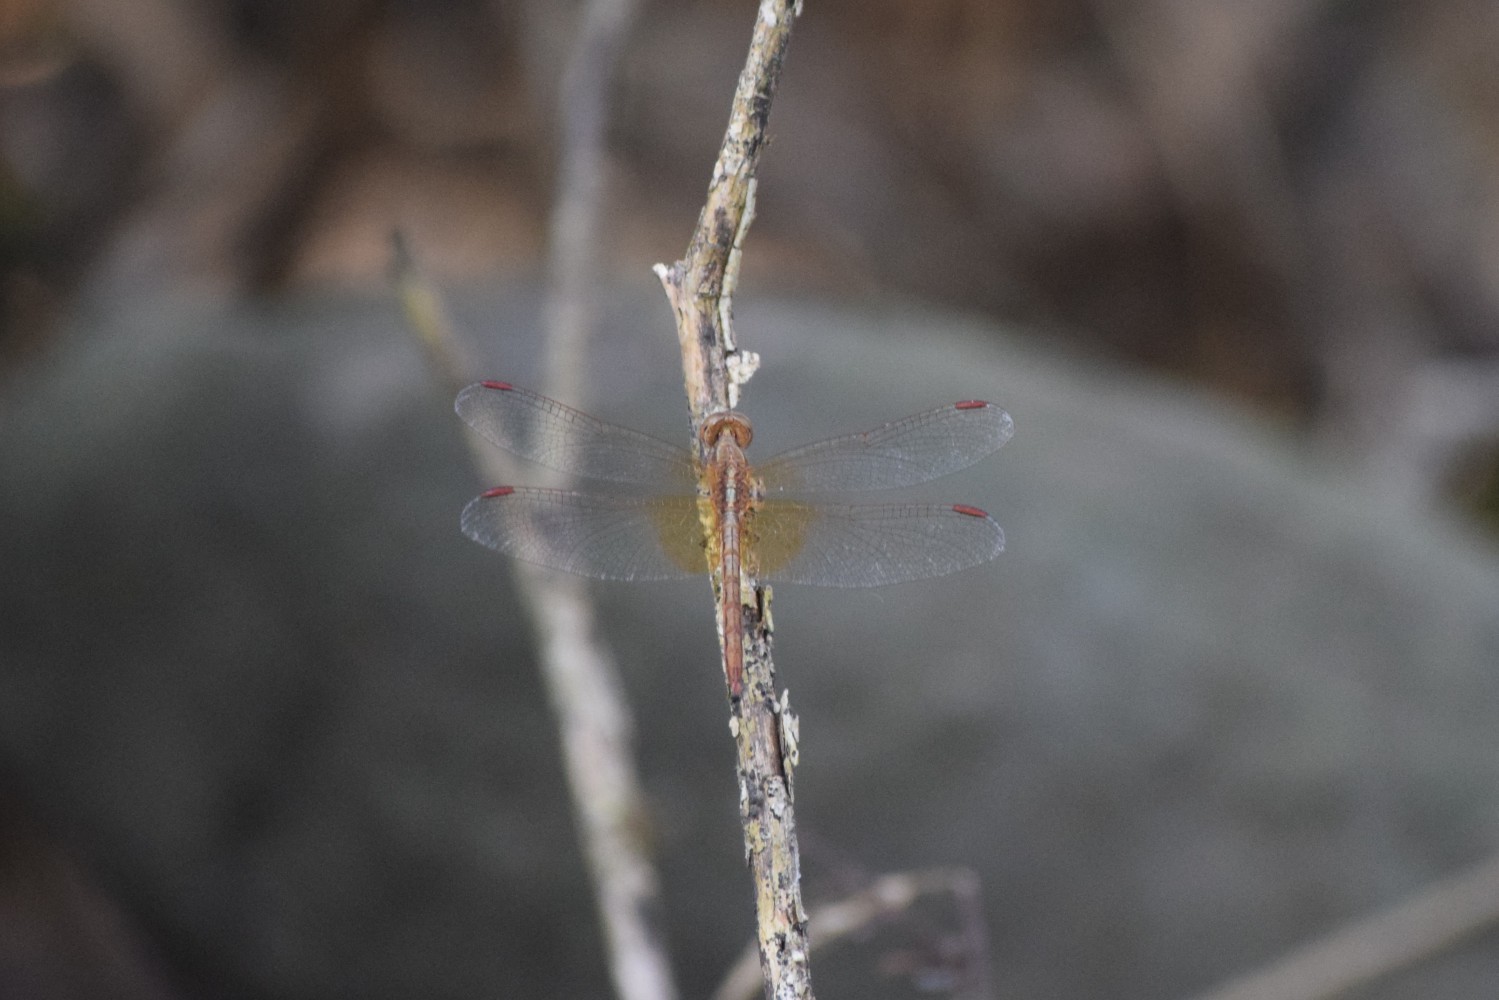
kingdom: Animalia
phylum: Arthropoda
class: Insecta
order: Odonata
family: Libellulidae
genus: Neurothemis
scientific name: Neurothemis intermedia
